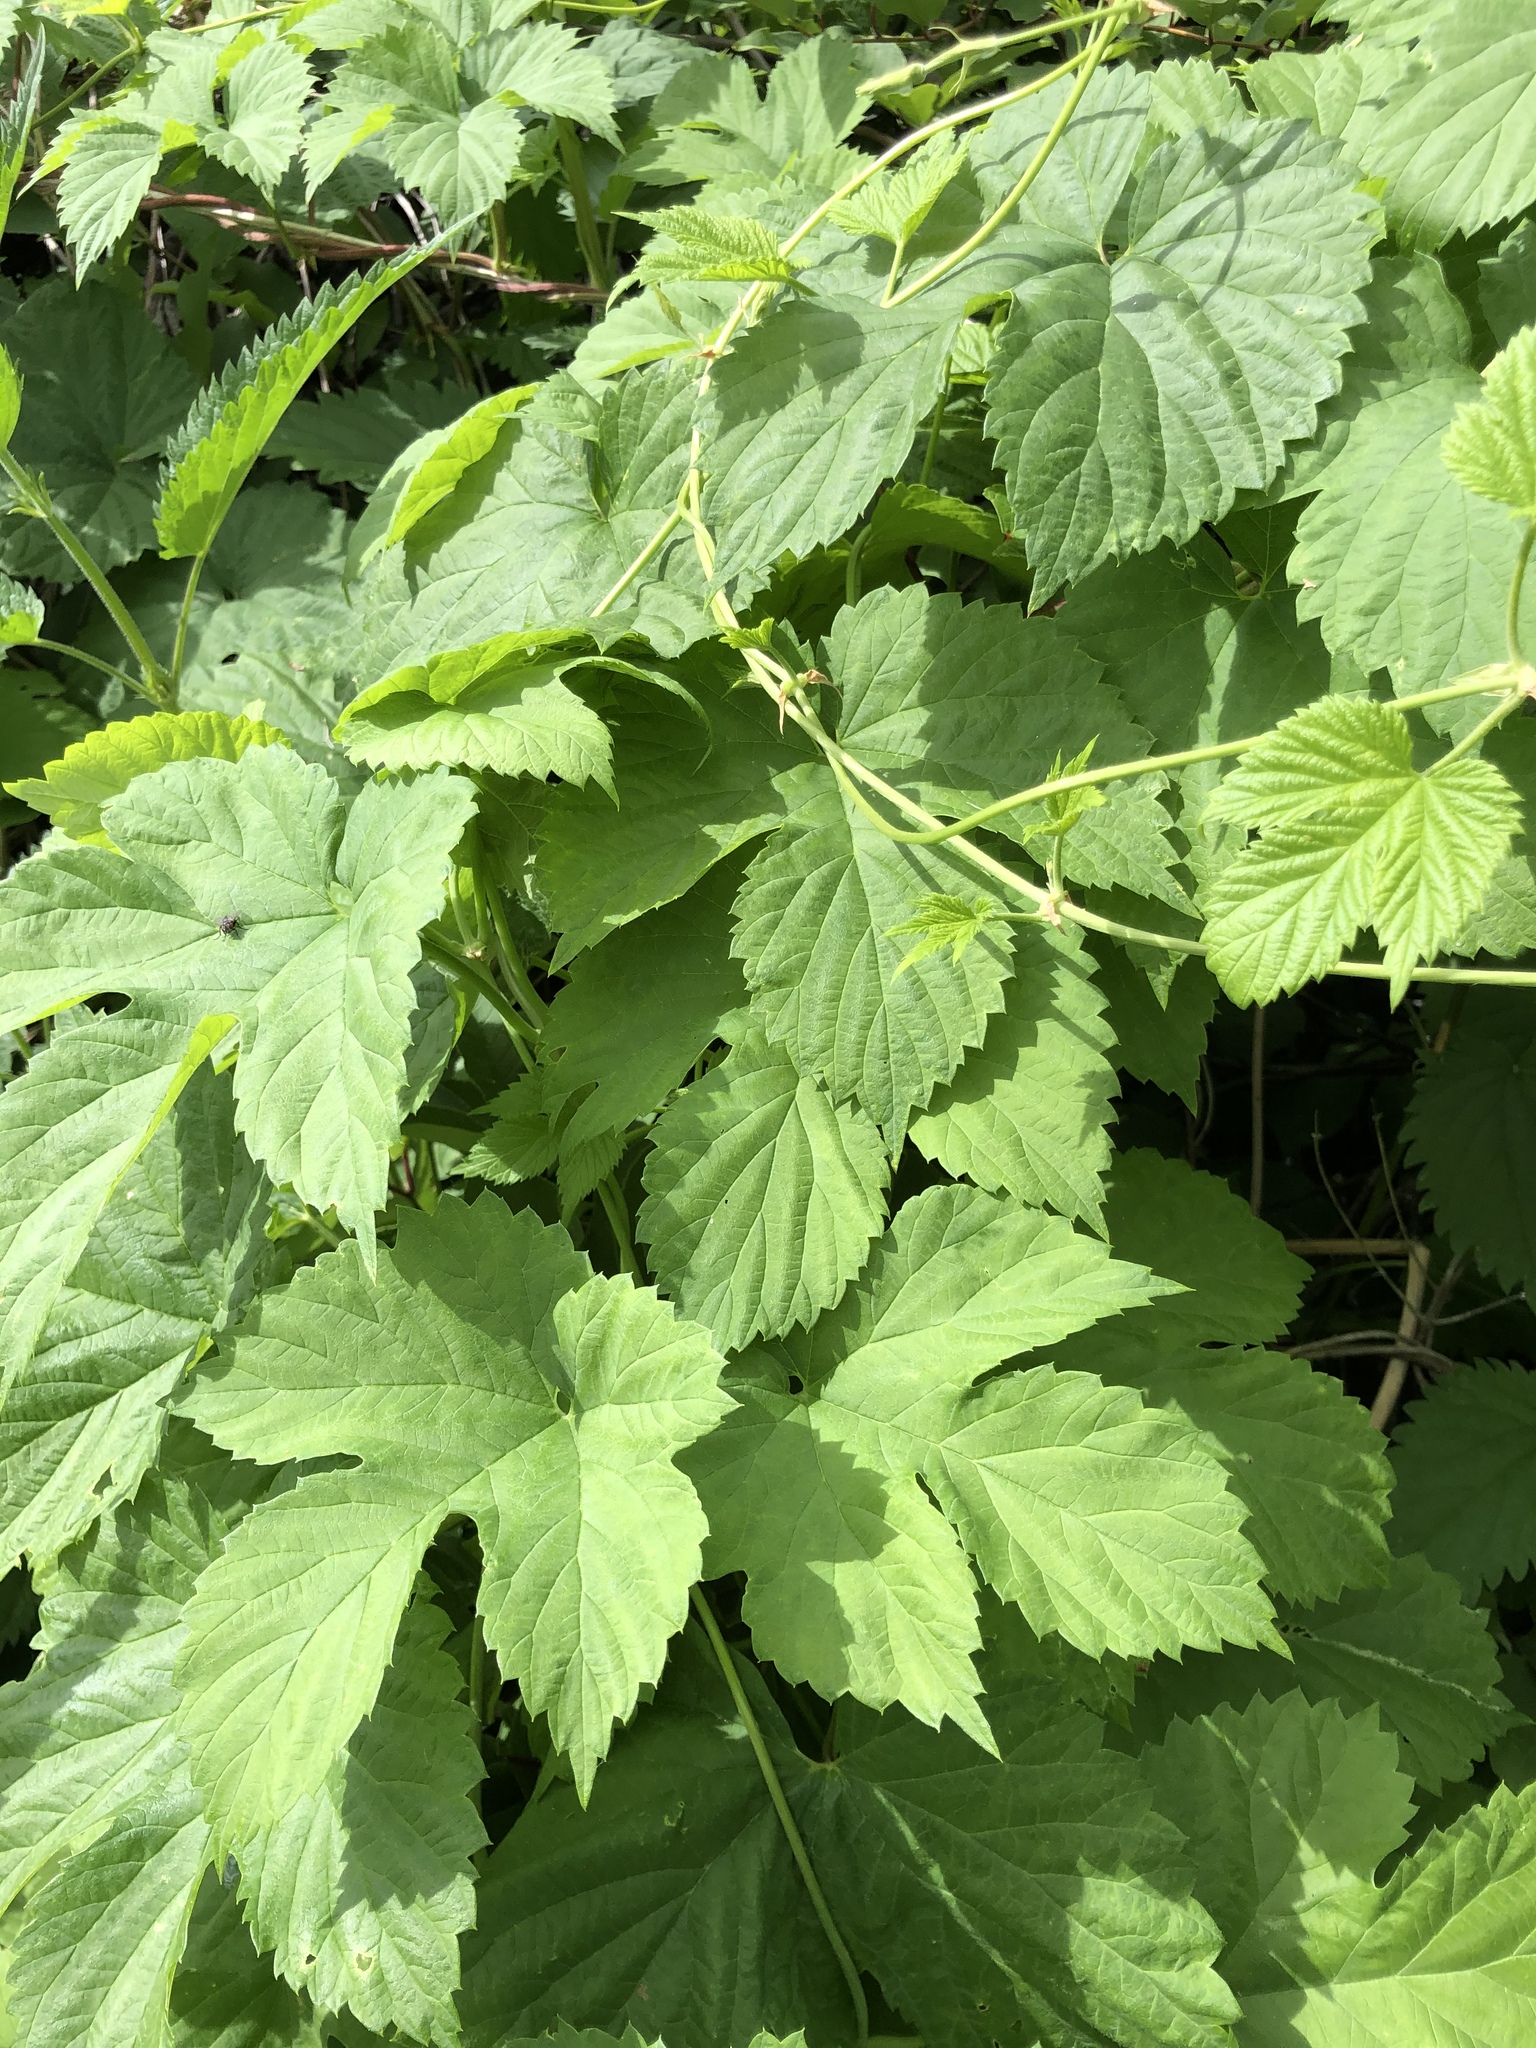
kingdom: Plantae
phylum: Tracheophyta
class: Magnoliopsida
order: Rosales
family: Cannabaceae
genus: Humulus
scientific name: Humulus lupulus
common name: Hop
